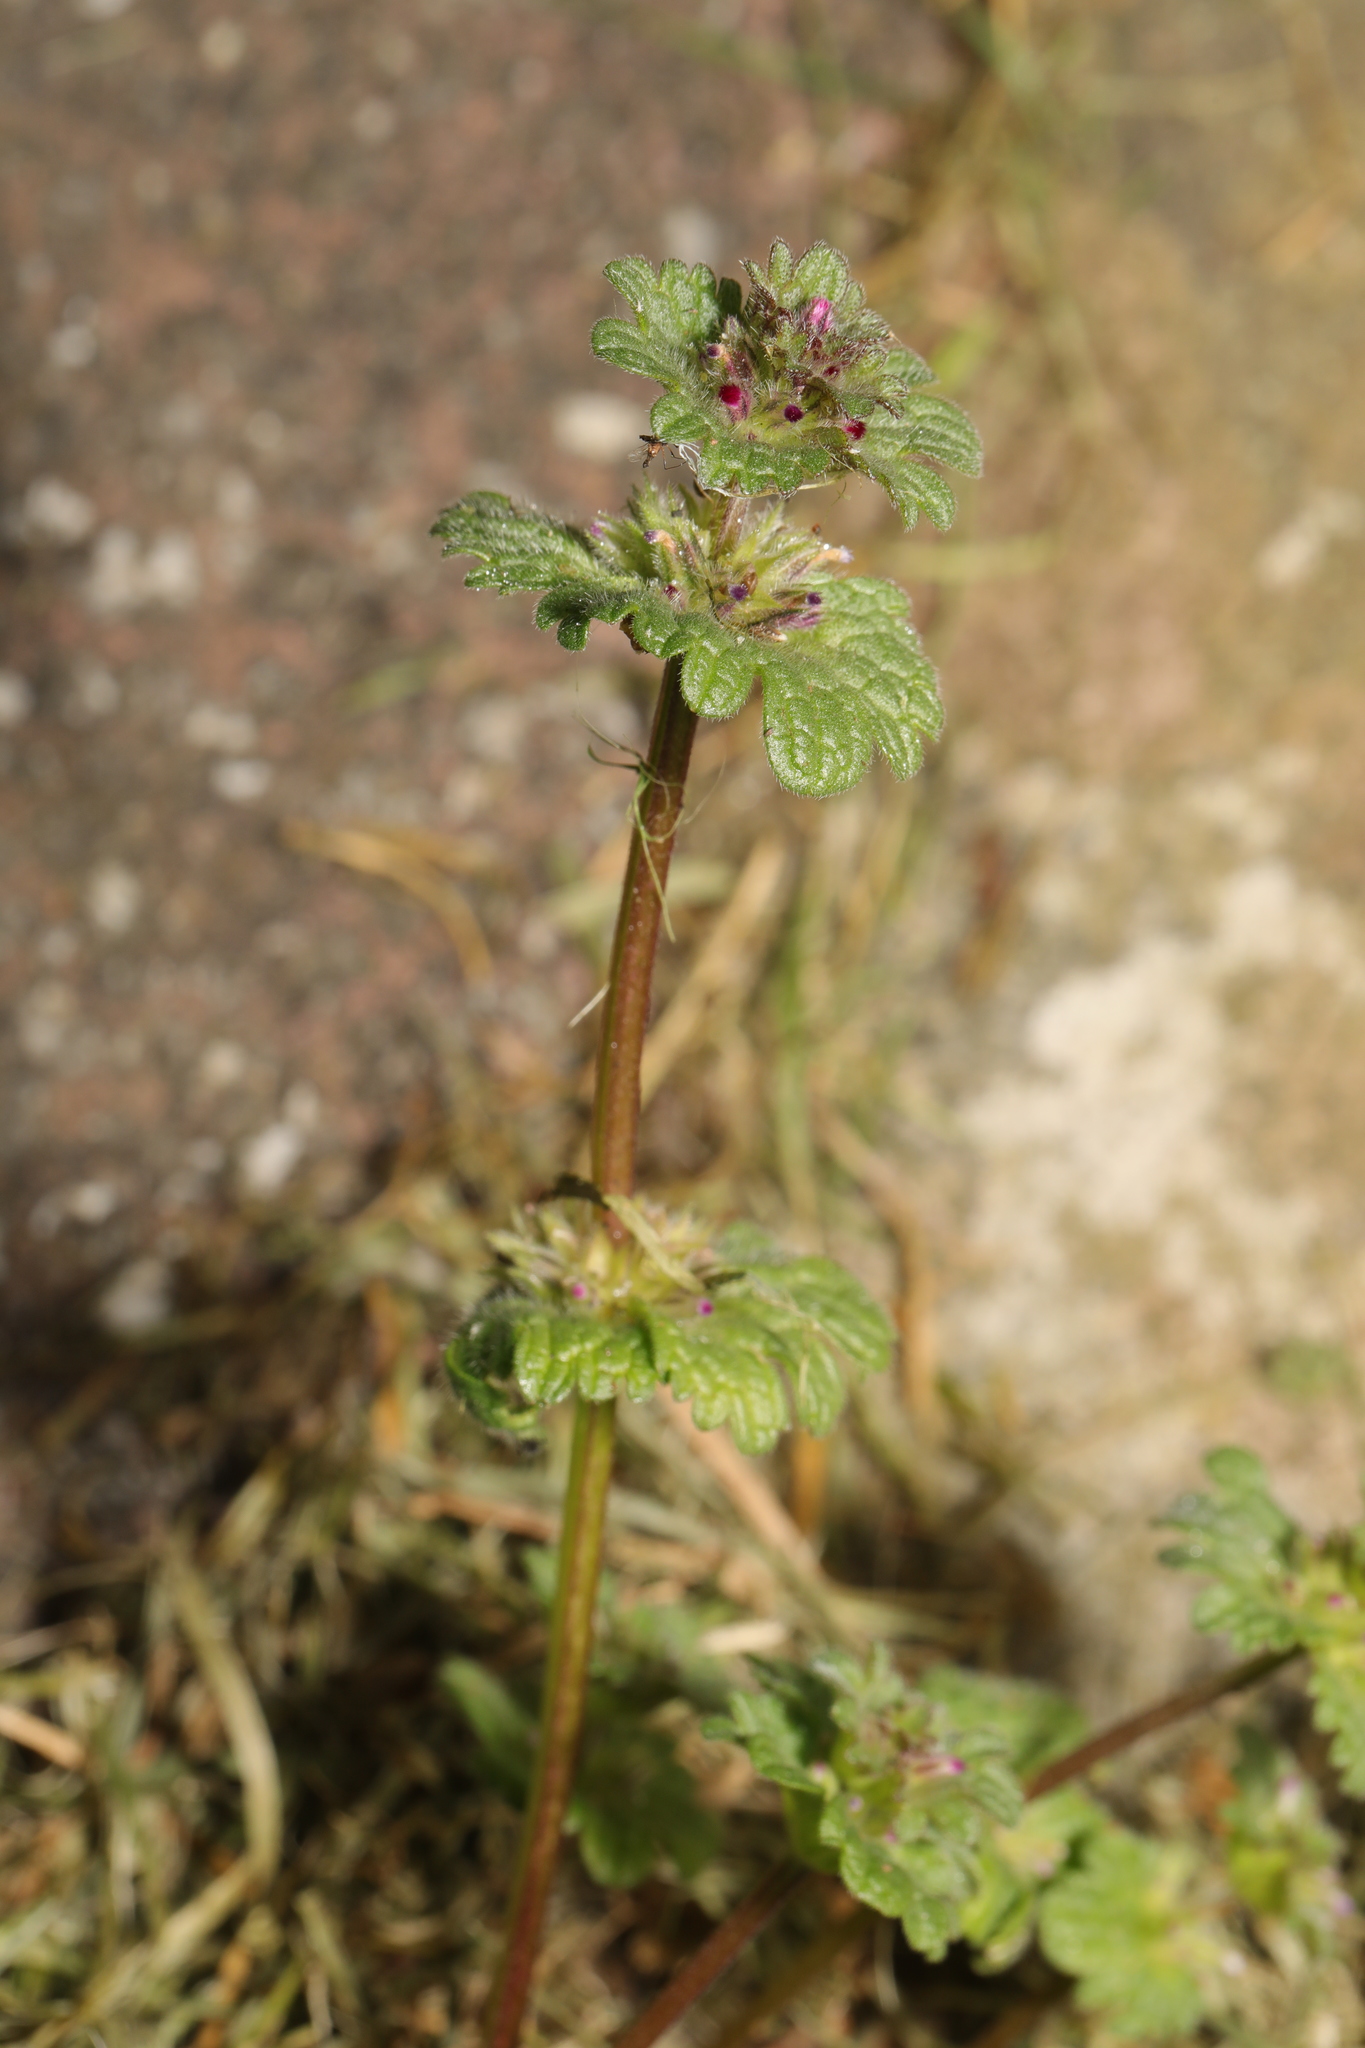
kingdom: Plantae
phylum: Tracheophyta
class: Magnoliopsida
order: Lamiales
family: Lamiaceae
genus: Lamium
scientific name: Lamium amplexicaule
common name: Henbit dead-nettle
